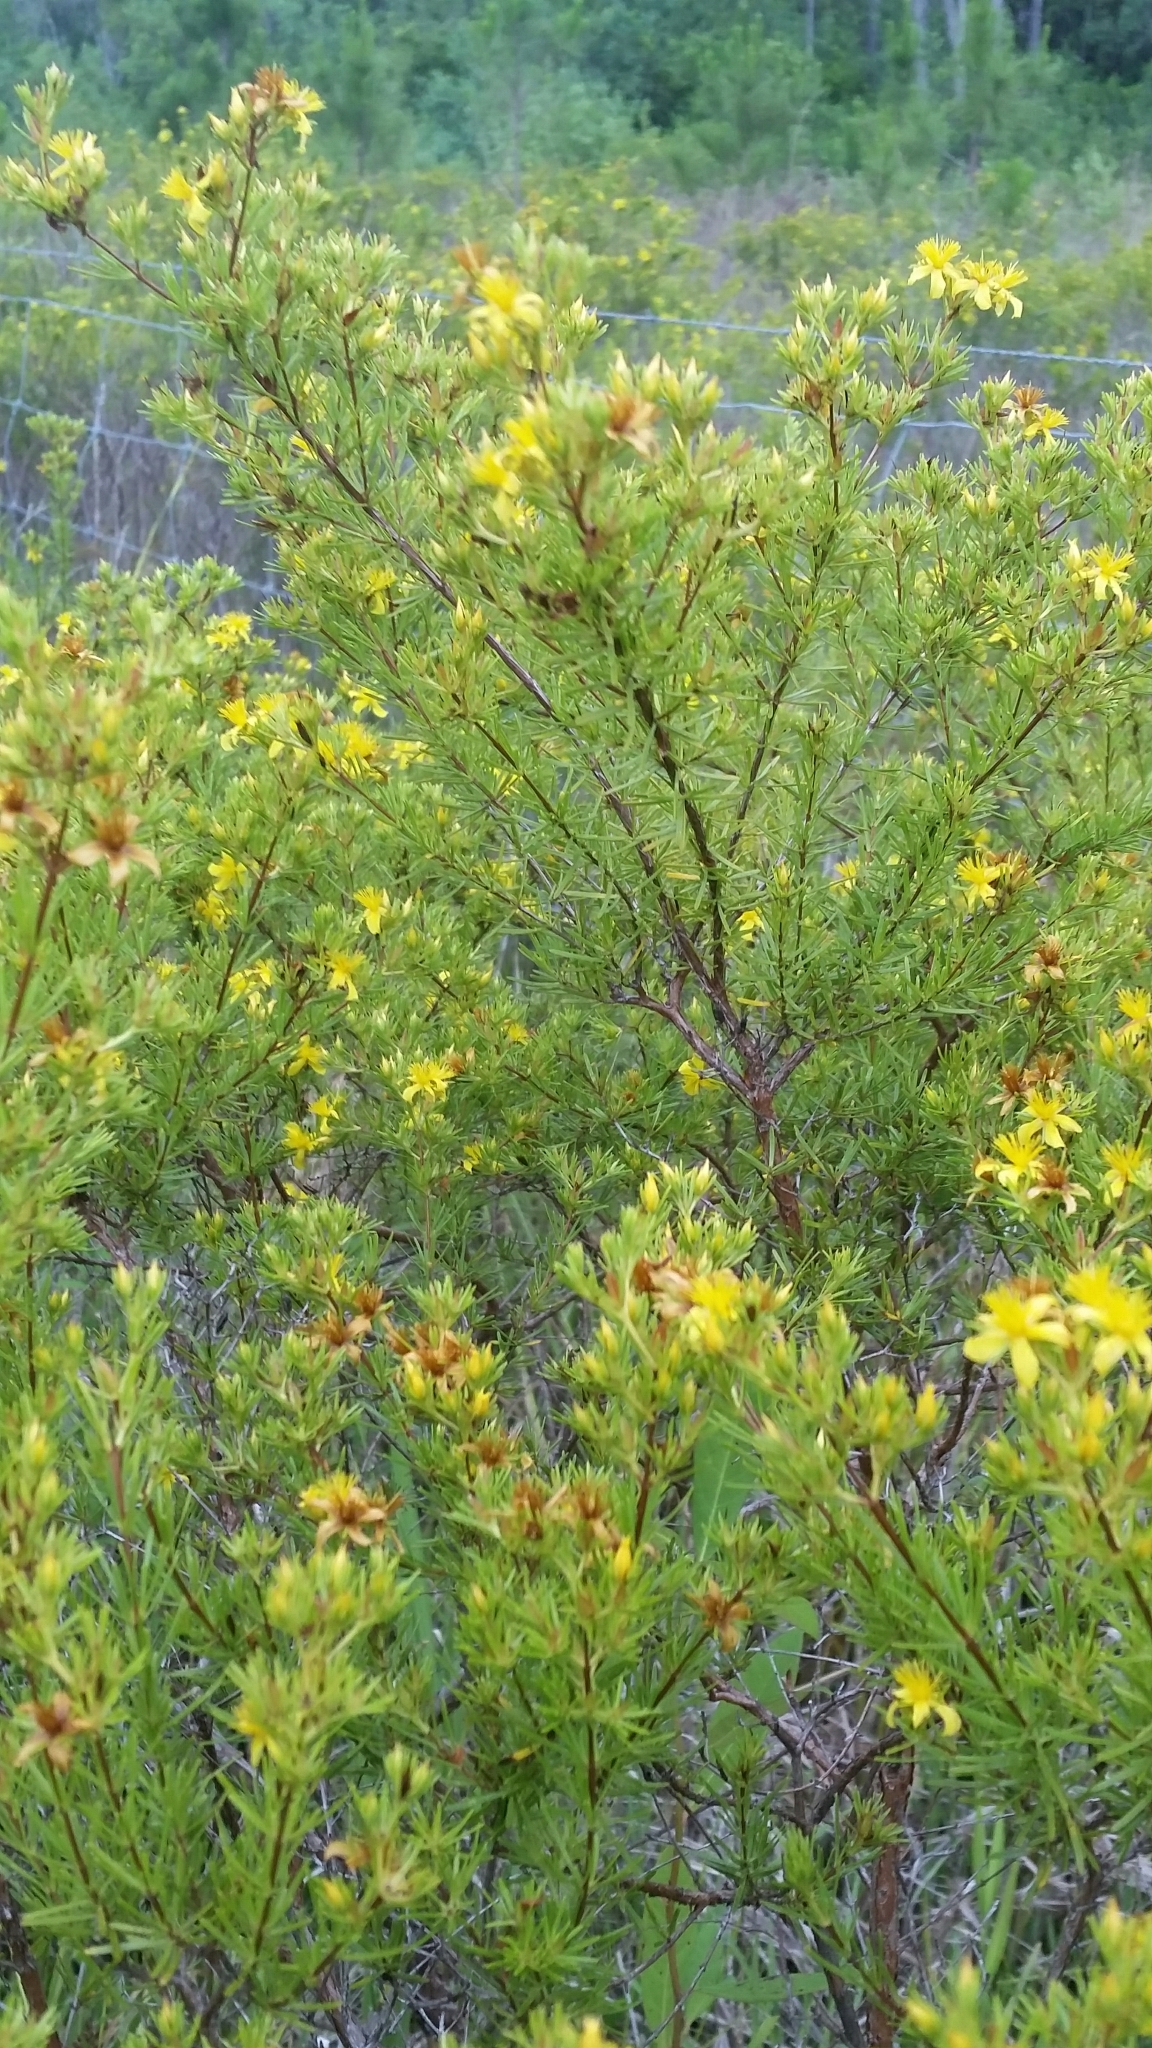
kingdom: Plantae
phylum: Tracheophyta
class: Magnoliopsida
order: Malpighiales
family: Hypericaceae
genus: Hypericum
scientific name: Hypericum fasciculatum
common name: Peelbark st. john's wort
